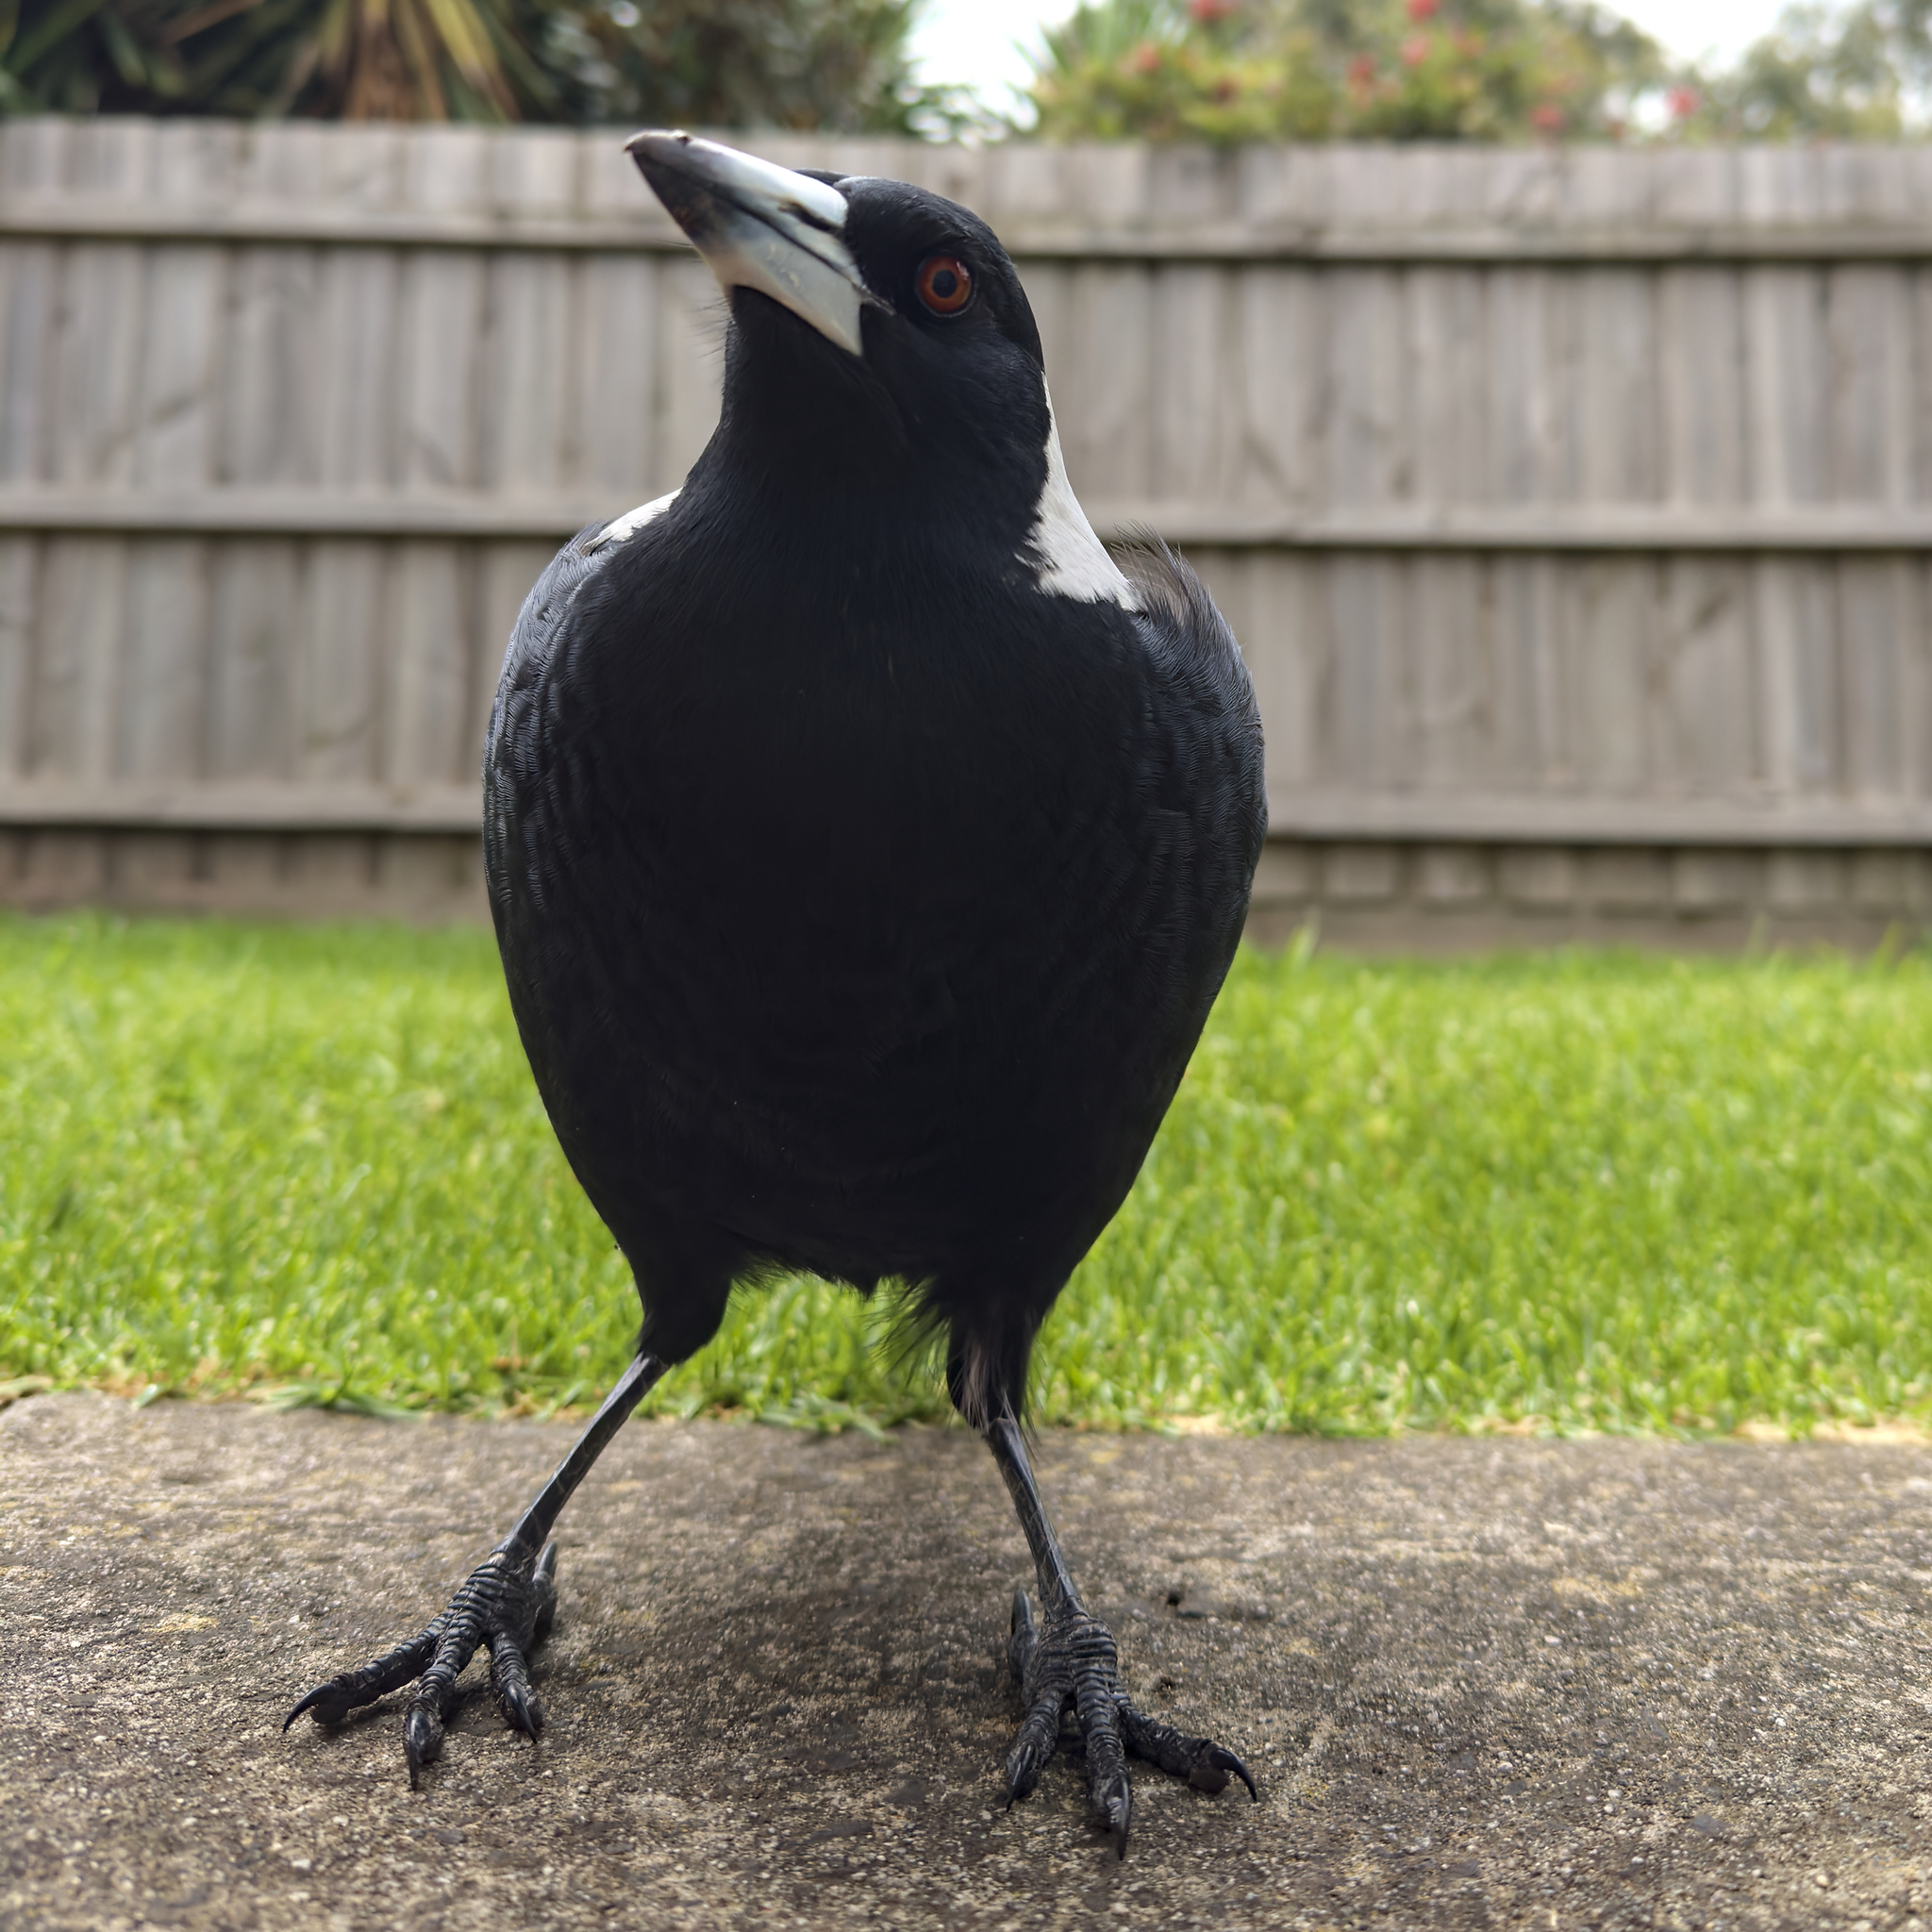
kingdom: Animalia
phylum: Chordata
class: Aves
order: Passeriformes
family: Cracticidae
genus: Gymnorhina
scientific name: Gymnorhina tibicen
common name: Australian magpie
